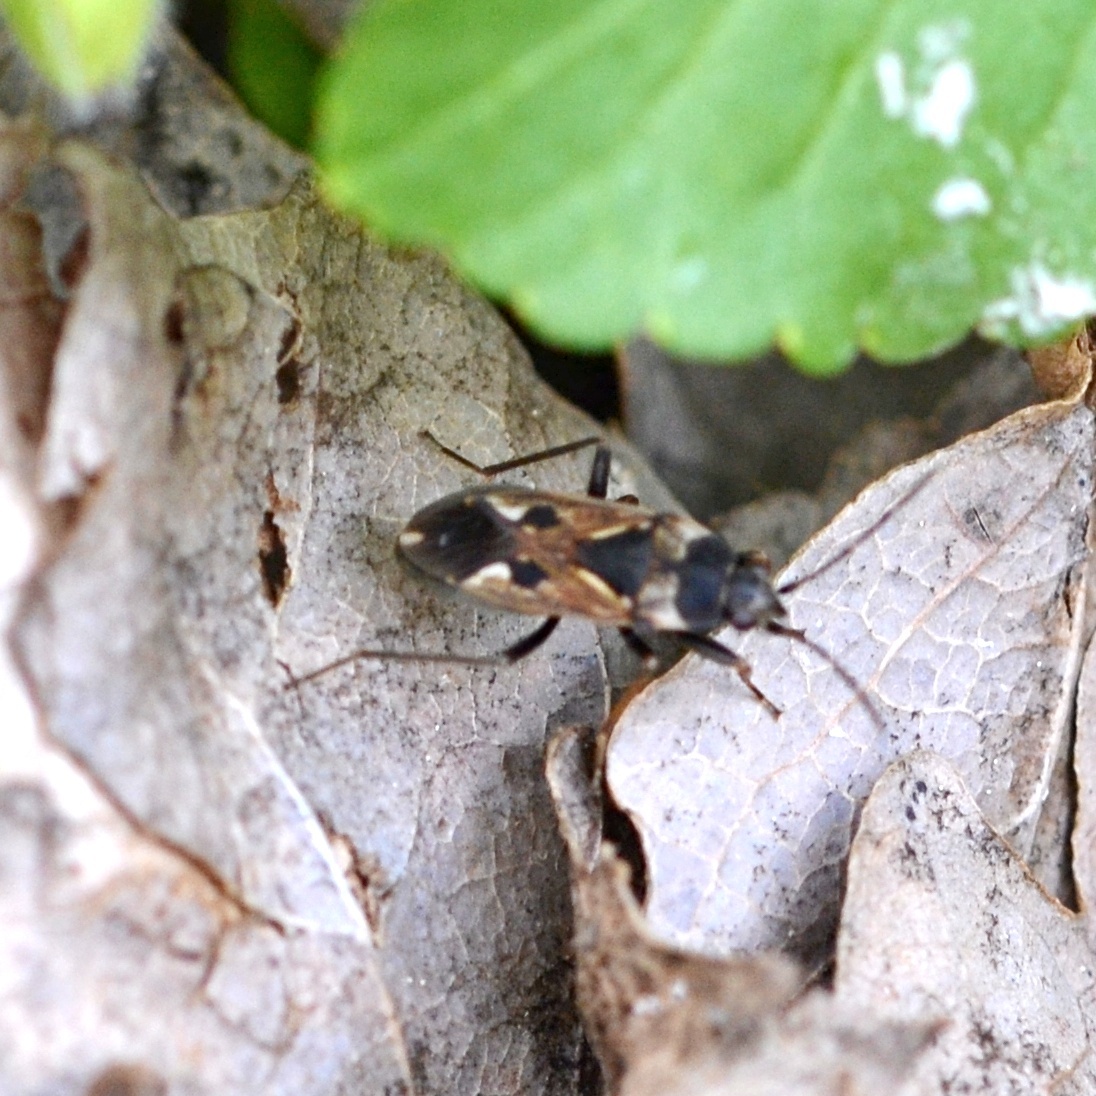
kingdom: Animalia
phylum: Arthropoda
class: Insecta
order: Hemiptera
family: Rhyparochromidae
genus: Rhyparochromus
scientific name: Rhyparochromus vulgaris
